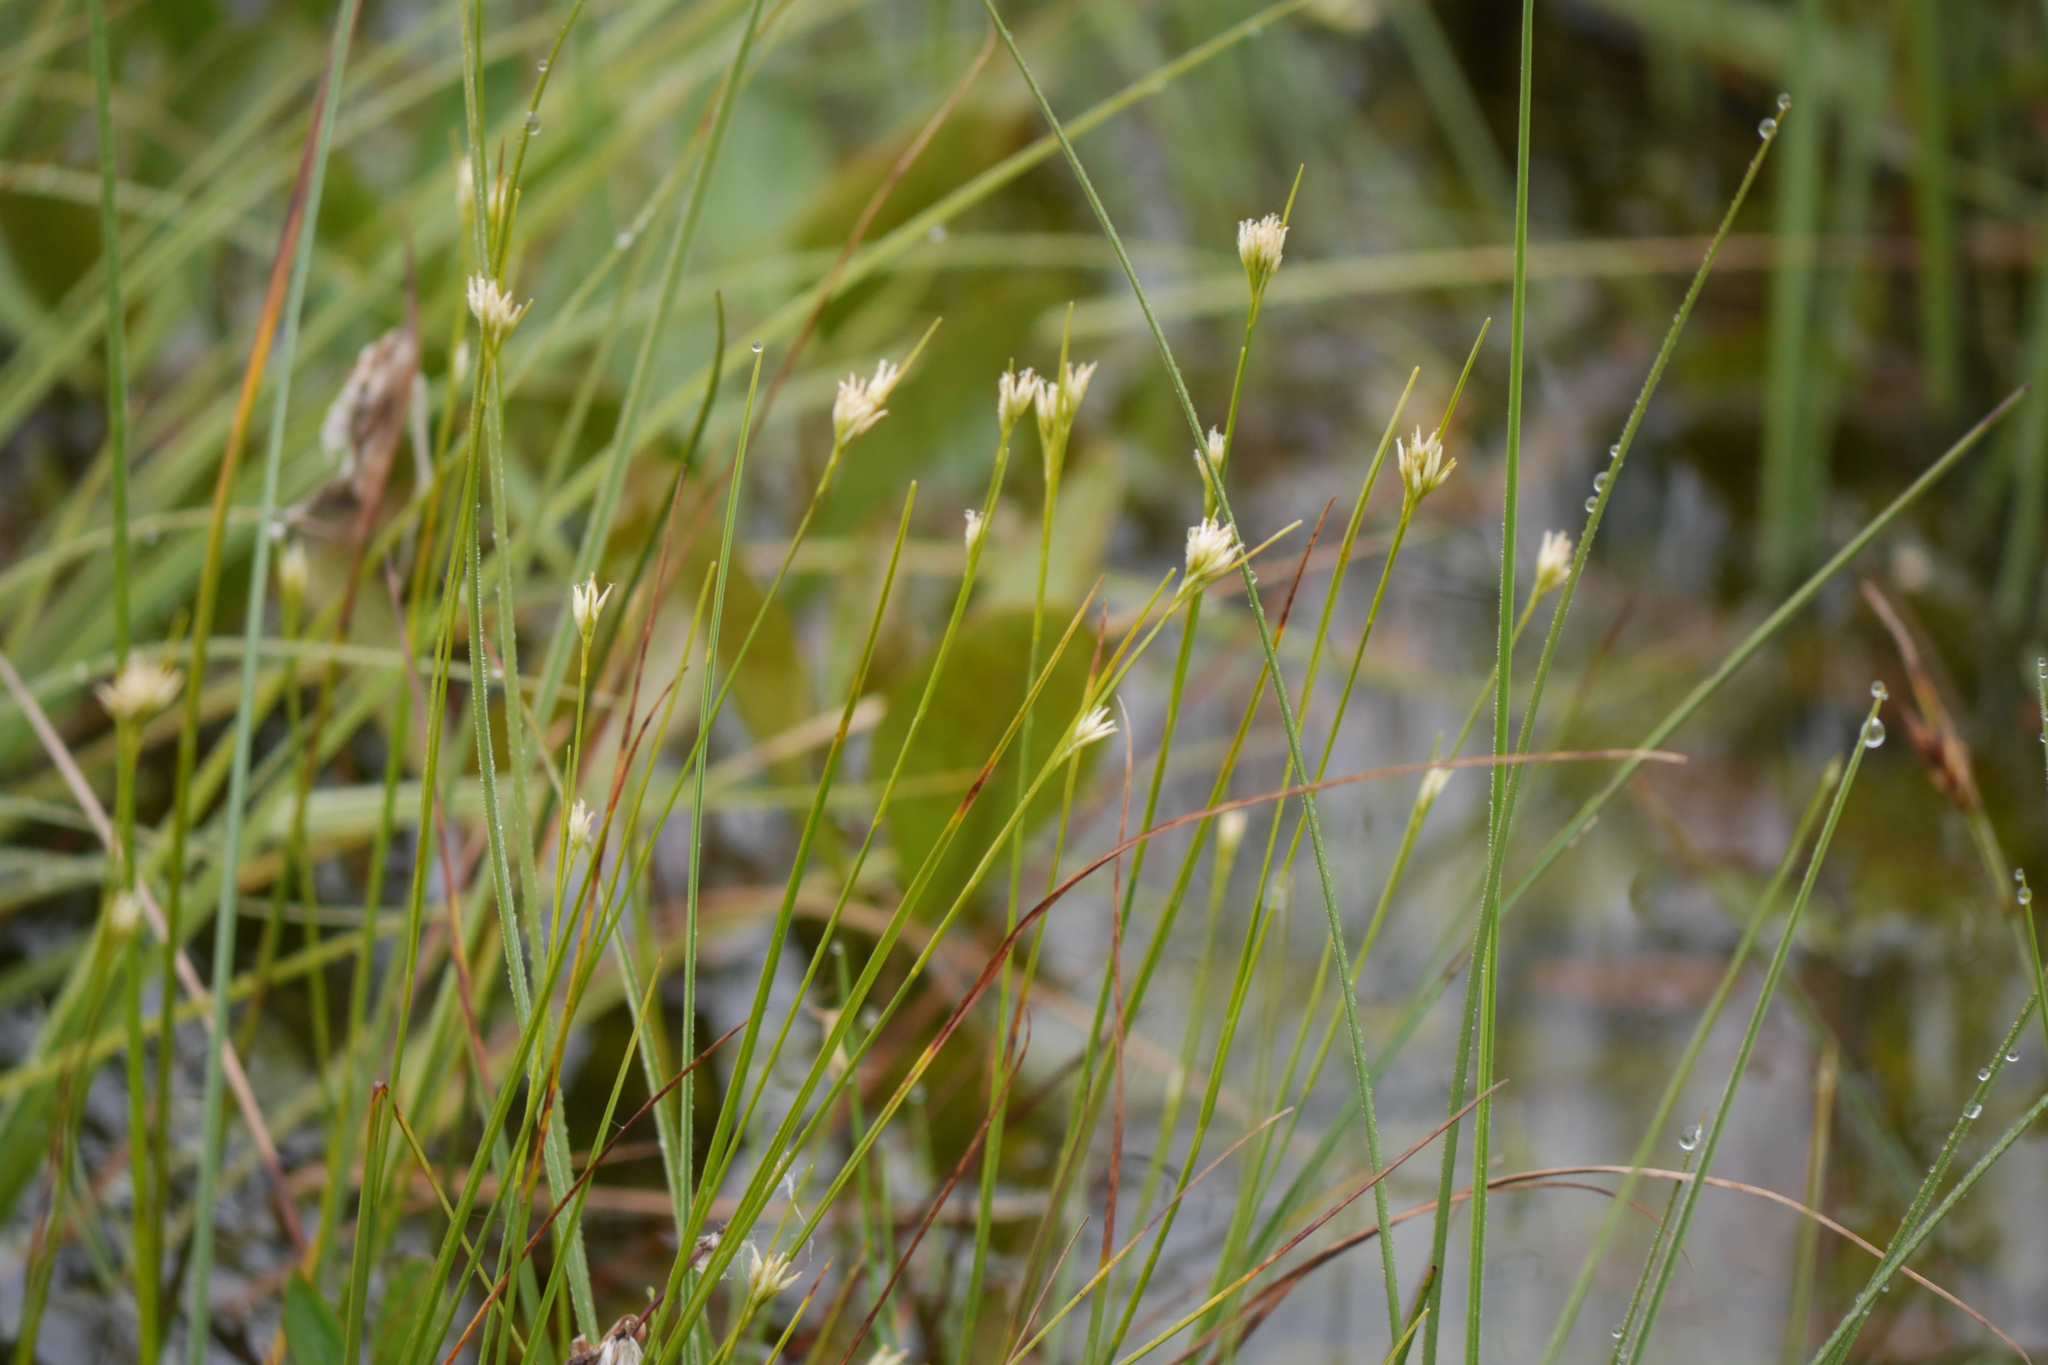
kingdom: Plantae
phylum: Tracheophyta
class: Liliopsida
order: Poales
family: Cyperaceae
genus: Rhynchospora
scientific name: Rhynchospora alba
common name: White beak-sedge
